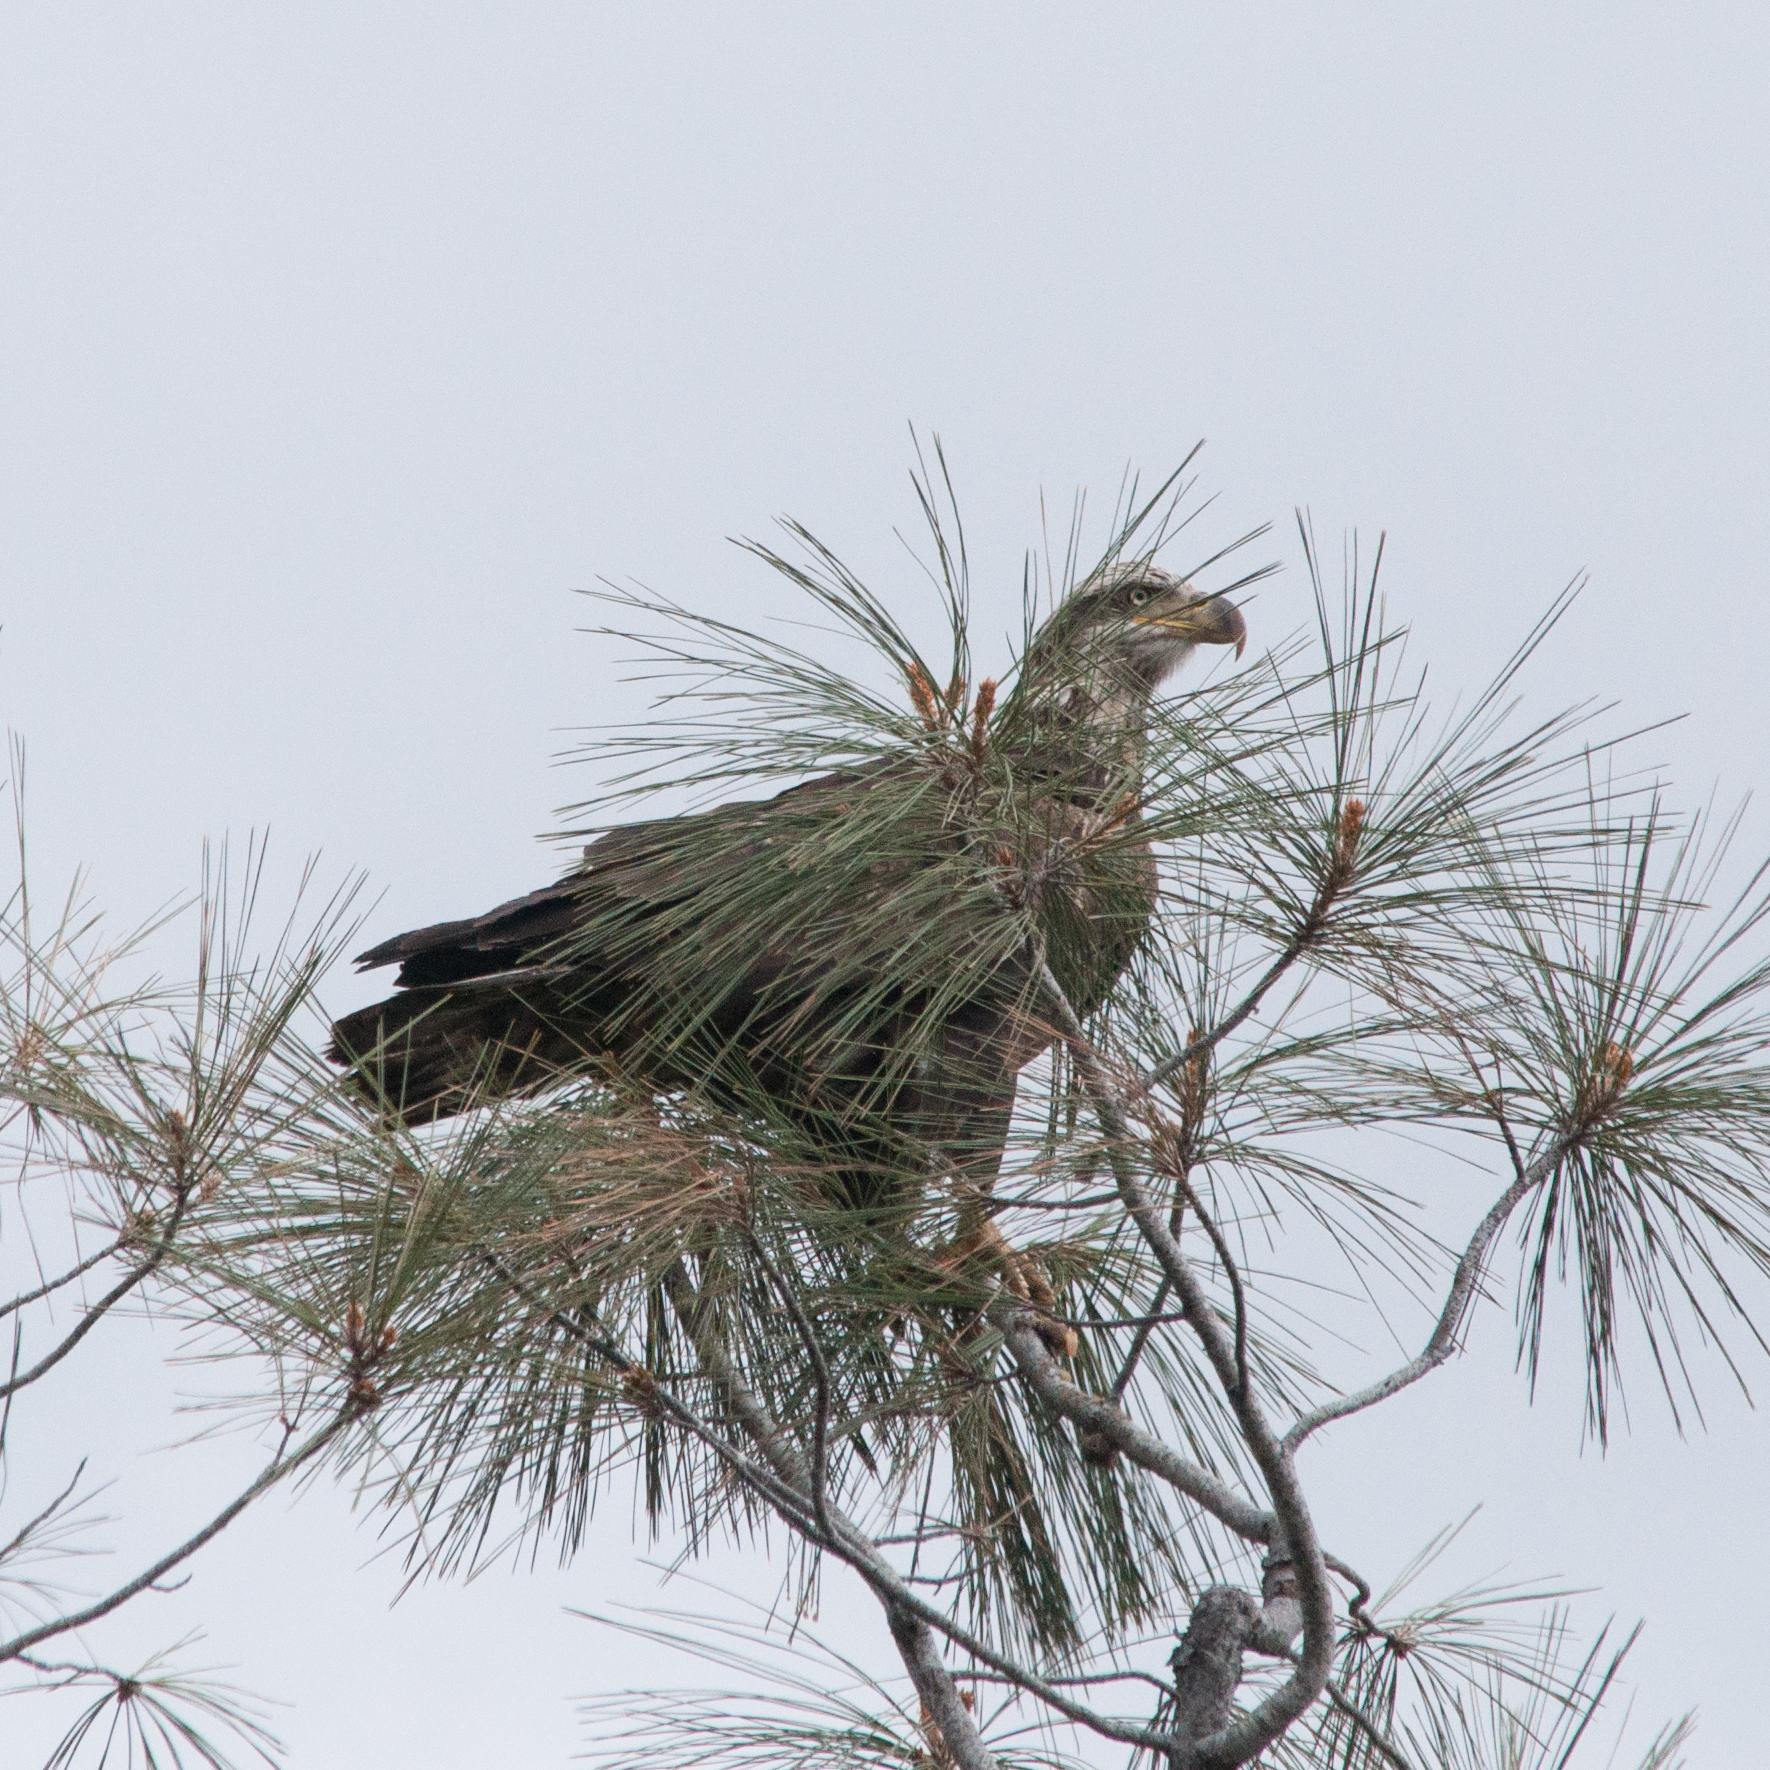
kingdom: Animalia
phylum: Chordata
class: Aves
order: Accipitriformes
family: Accipitridae
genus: Haliaeetus
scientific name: Haliaeetus leucocephalus
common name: Bald eagle
